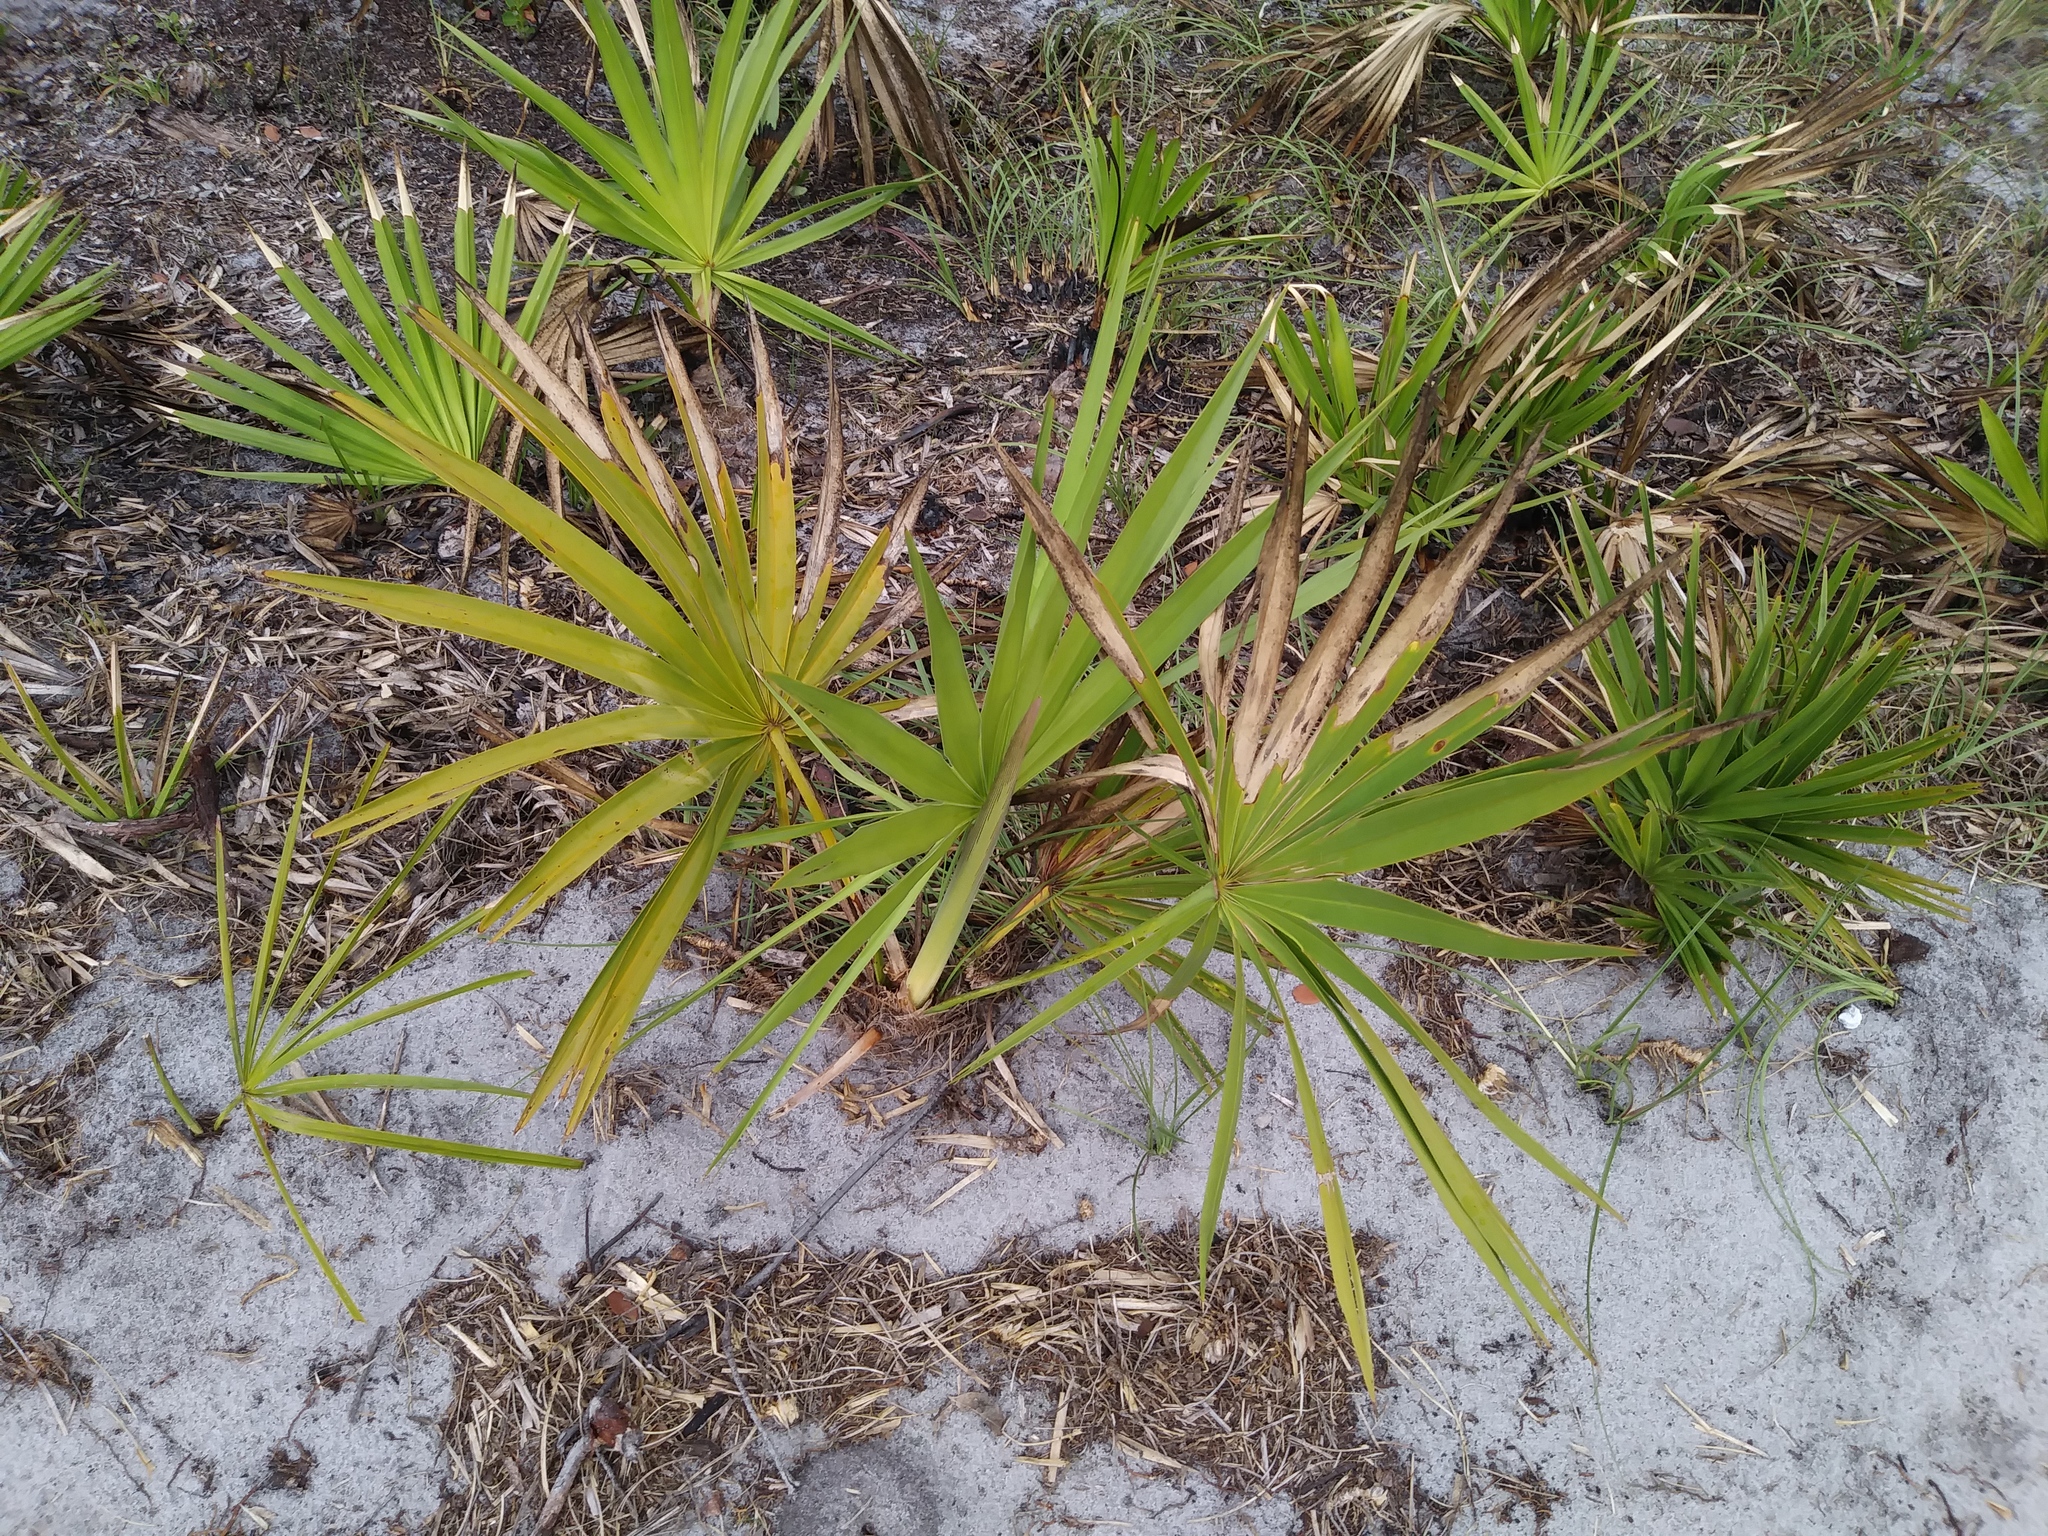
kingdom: Plantae
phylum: Tracheophyta
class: Liliopsida
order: Arecales
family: Arecaceae
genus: Serenoa
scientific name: Serenoa repens
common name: Saw-palmetto
